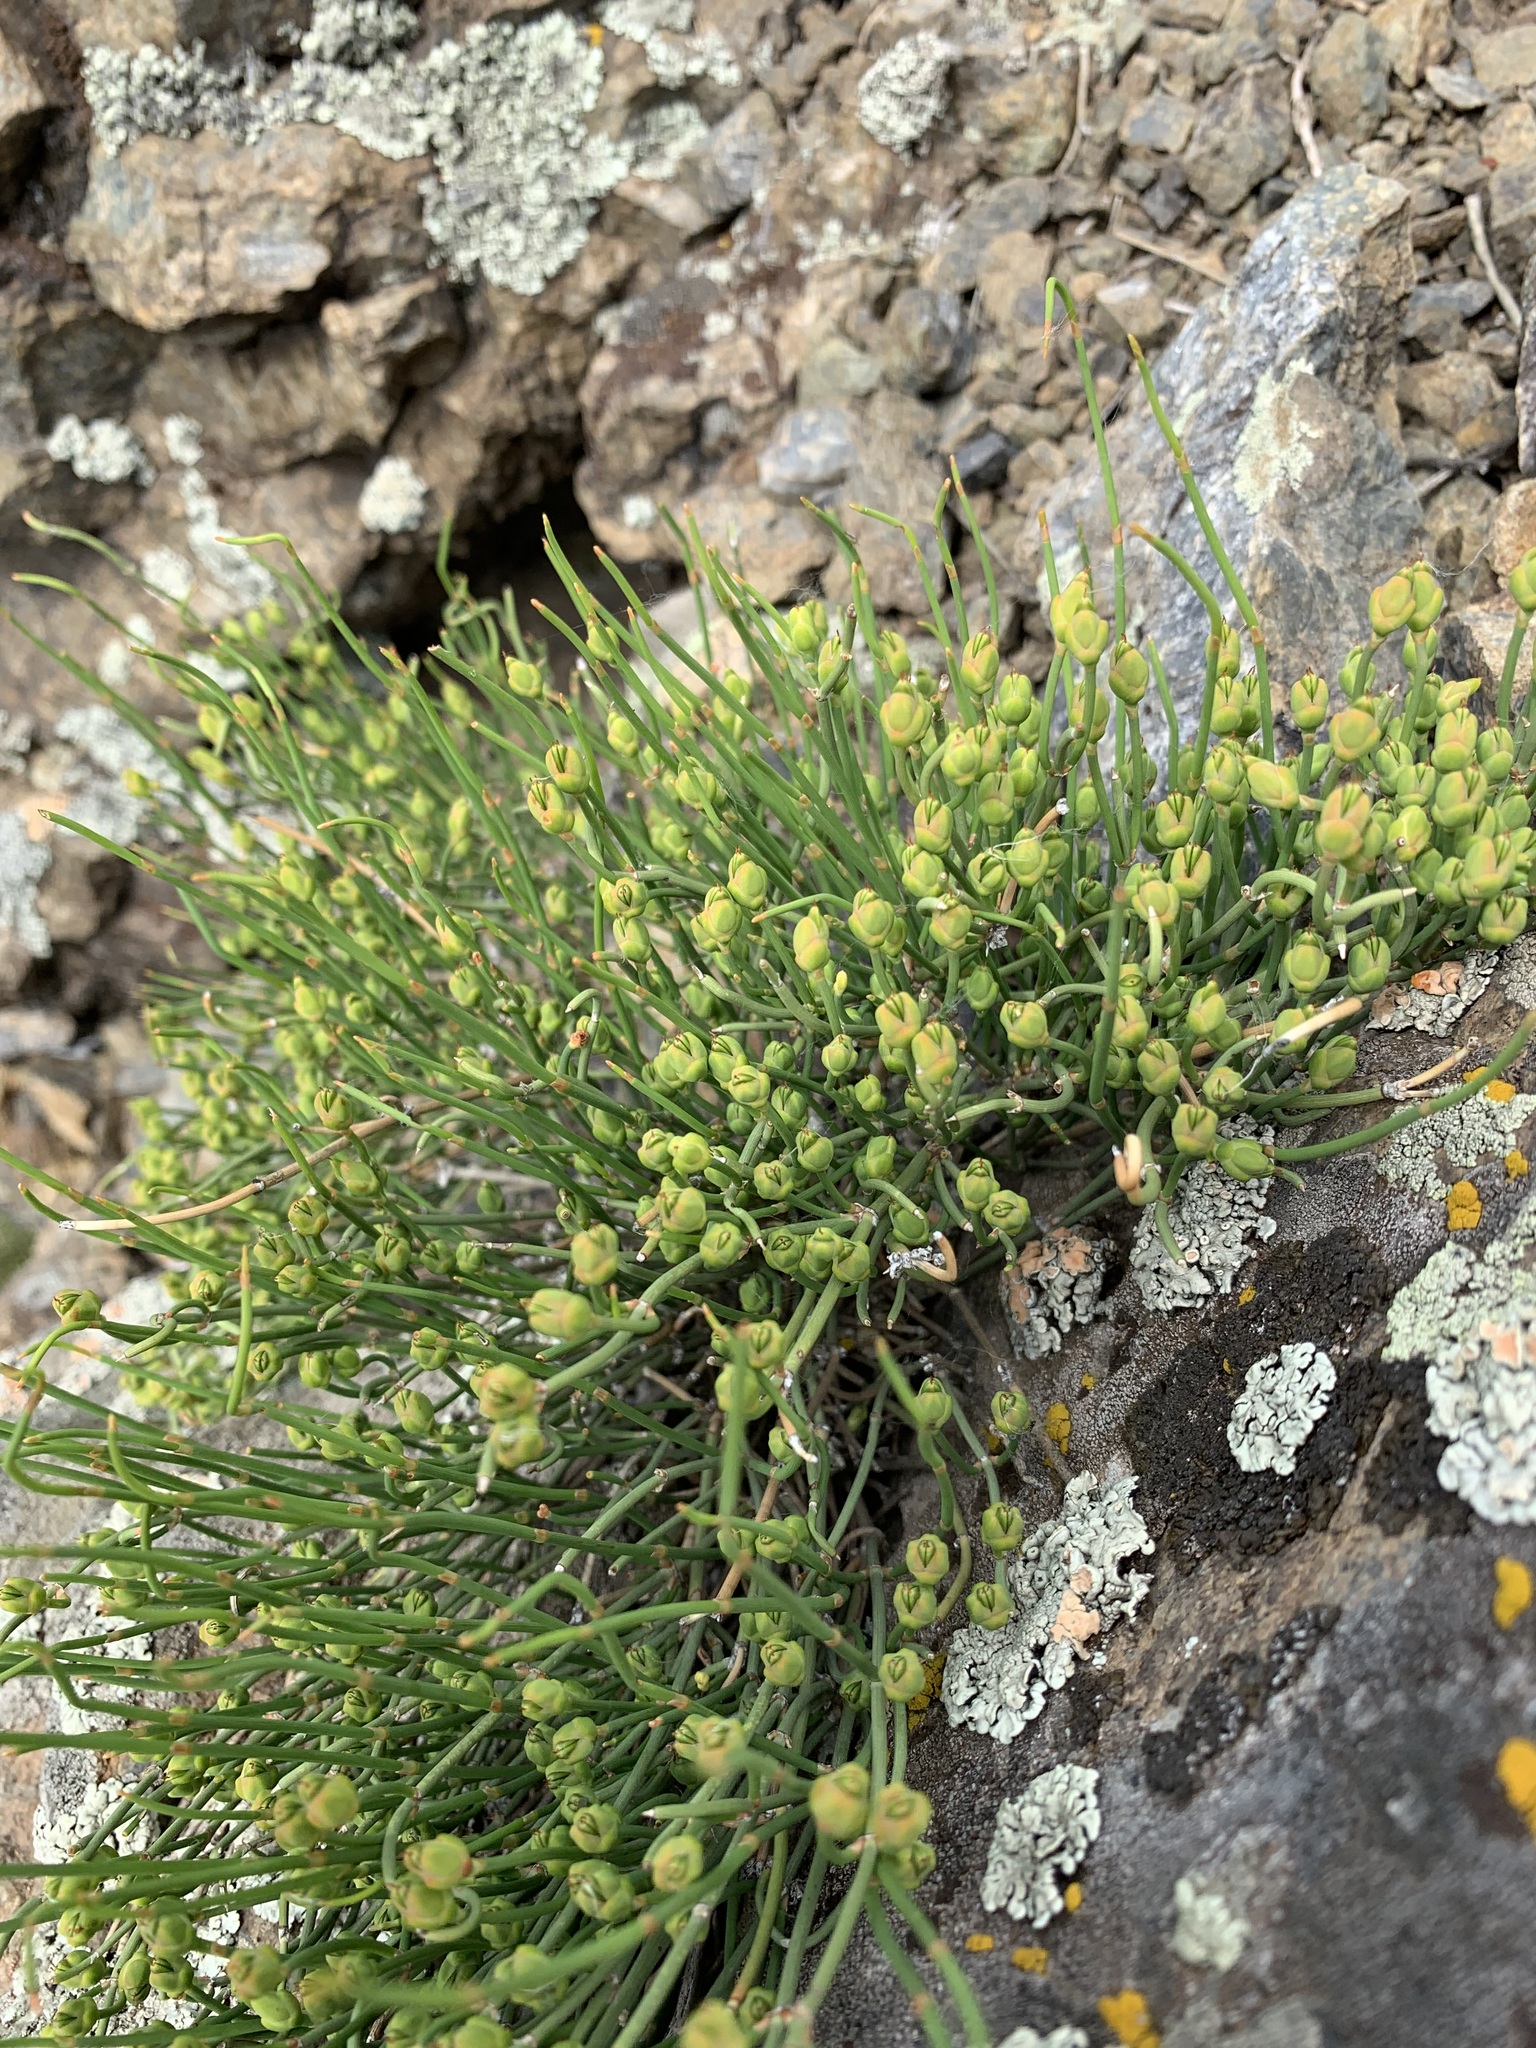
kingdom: Plantae
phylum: Tracheophyta
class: Gnetopsida
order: Ephedrales
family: Ephedraceae
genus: Ephedra
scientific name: Ephedra distachya
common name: Sea grape
